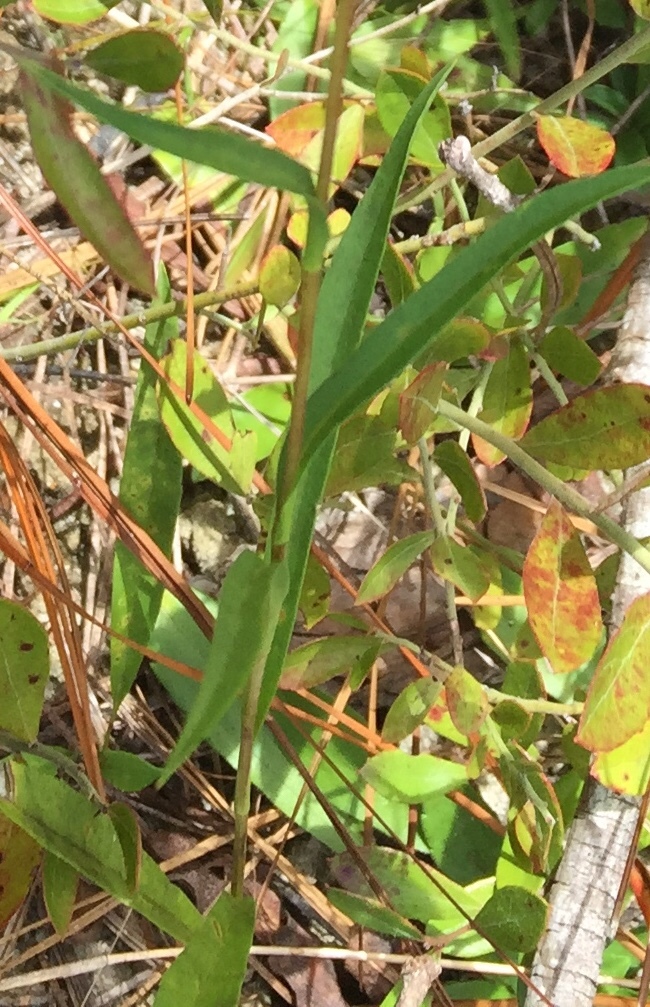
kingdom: Plantae
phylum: Tracheophyta
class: Magnoliopsida
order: Asterales
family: Asteraceae
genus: Eurybia
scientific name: Eurybia paludosa
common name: Southern swamp aster
